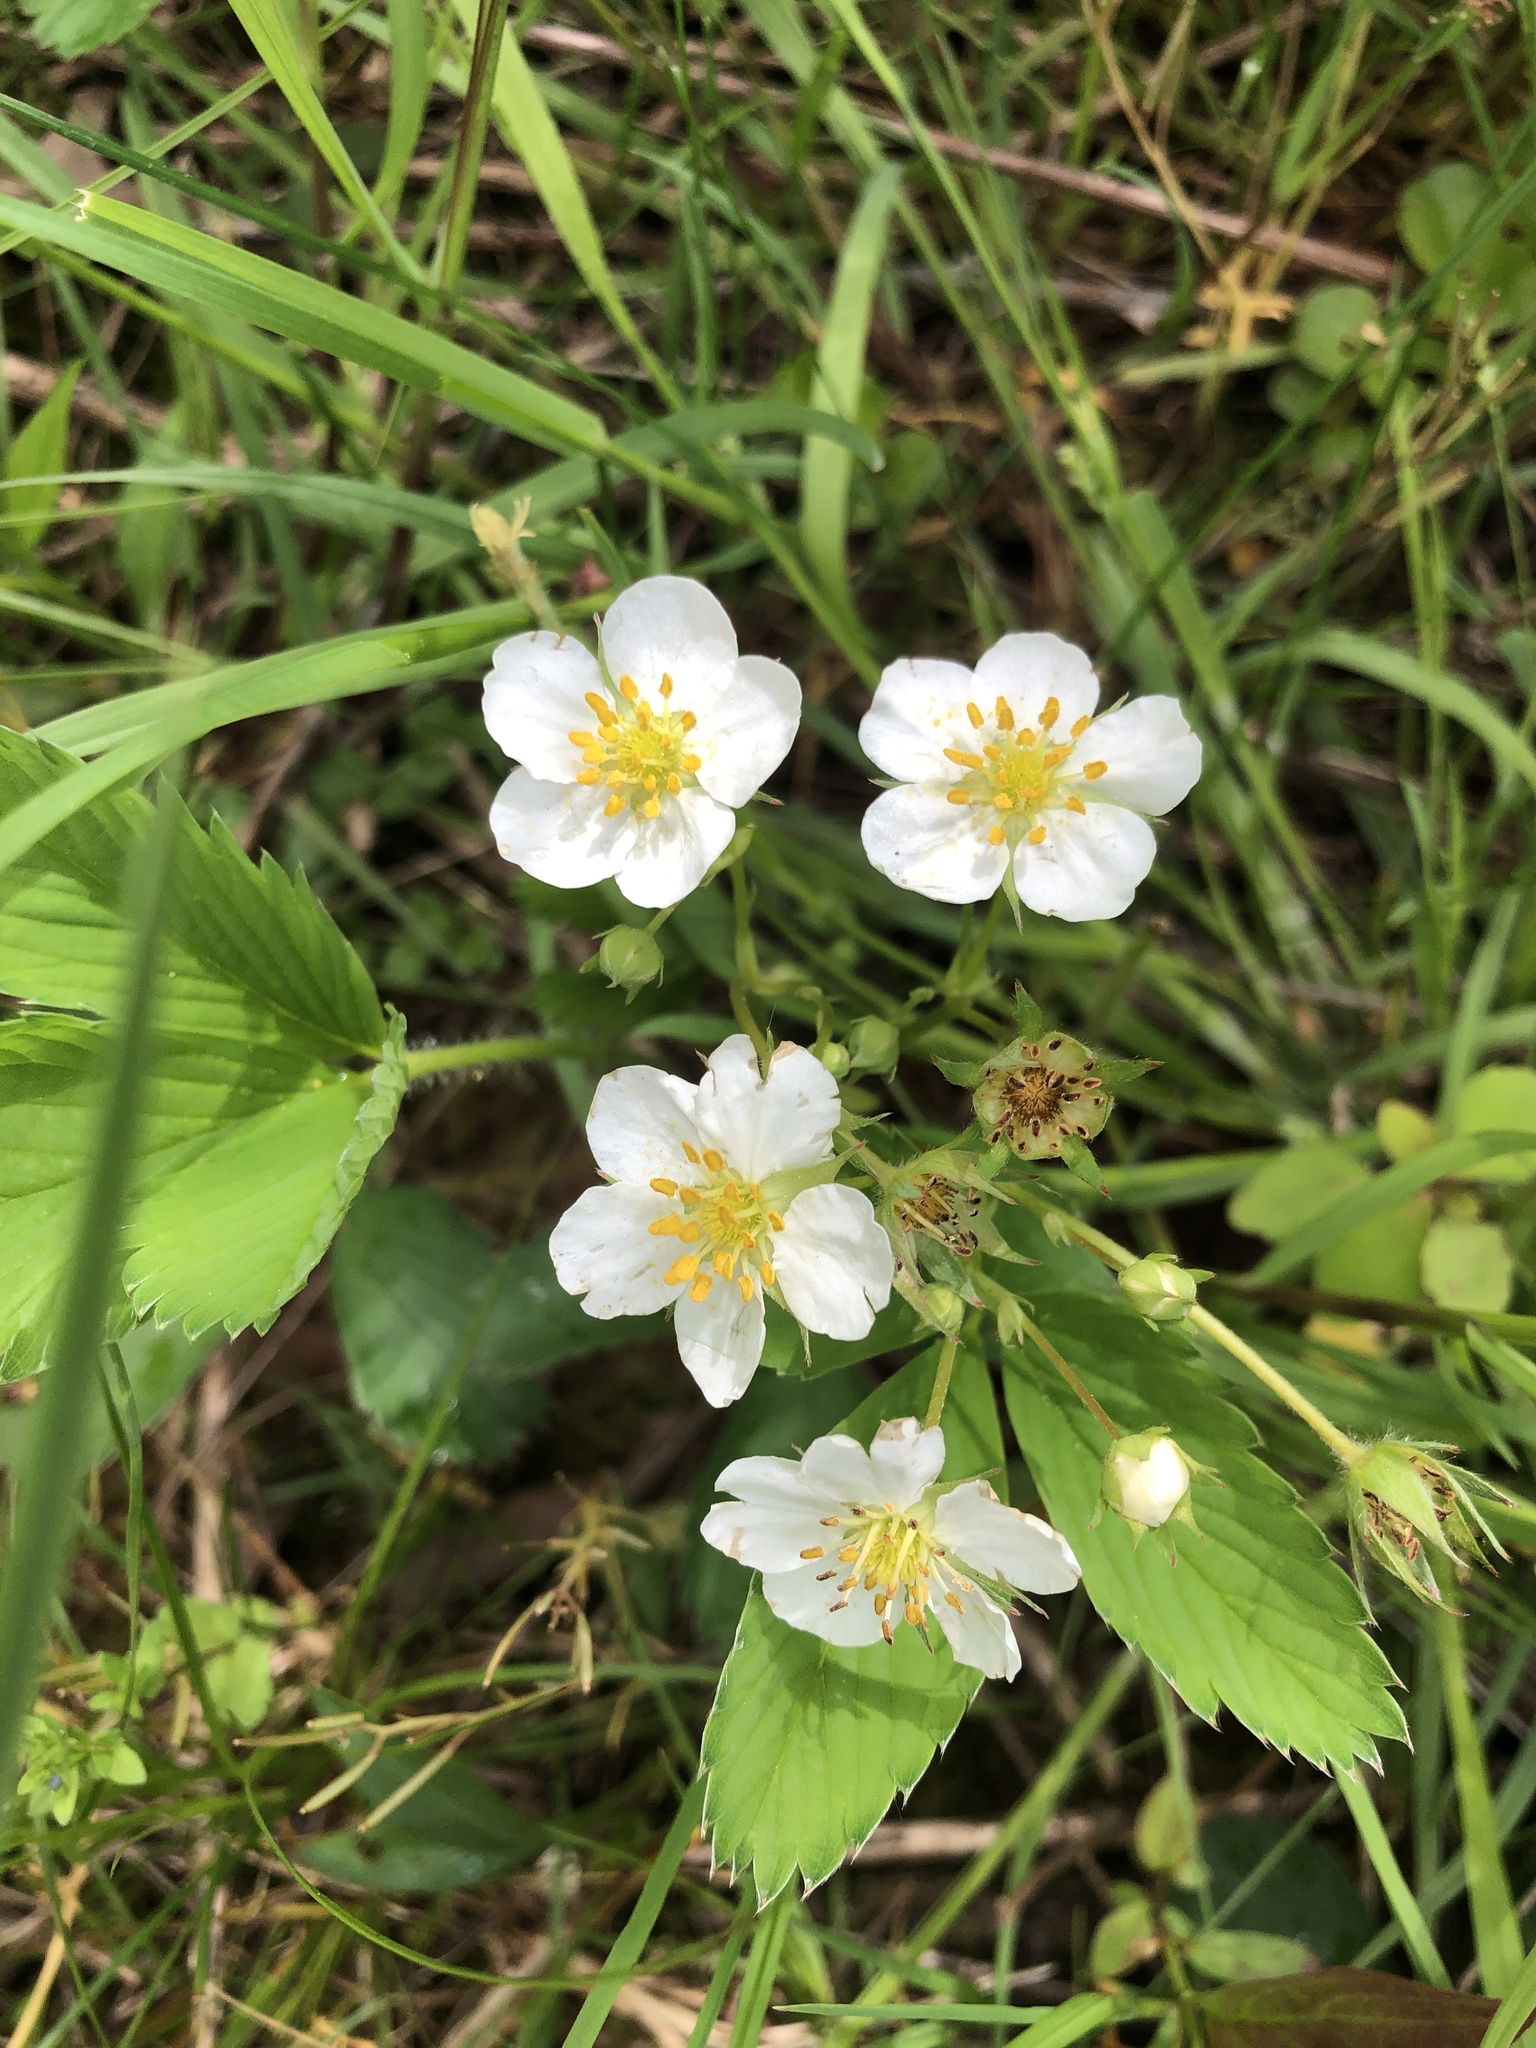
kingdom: Plantae
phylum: Tracheophyta
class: Magnoliopsida
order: Rosales
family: Rosaceae
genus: Fragaria
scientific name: Fragaria virginiana
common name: Thickleaved wild strawberry
